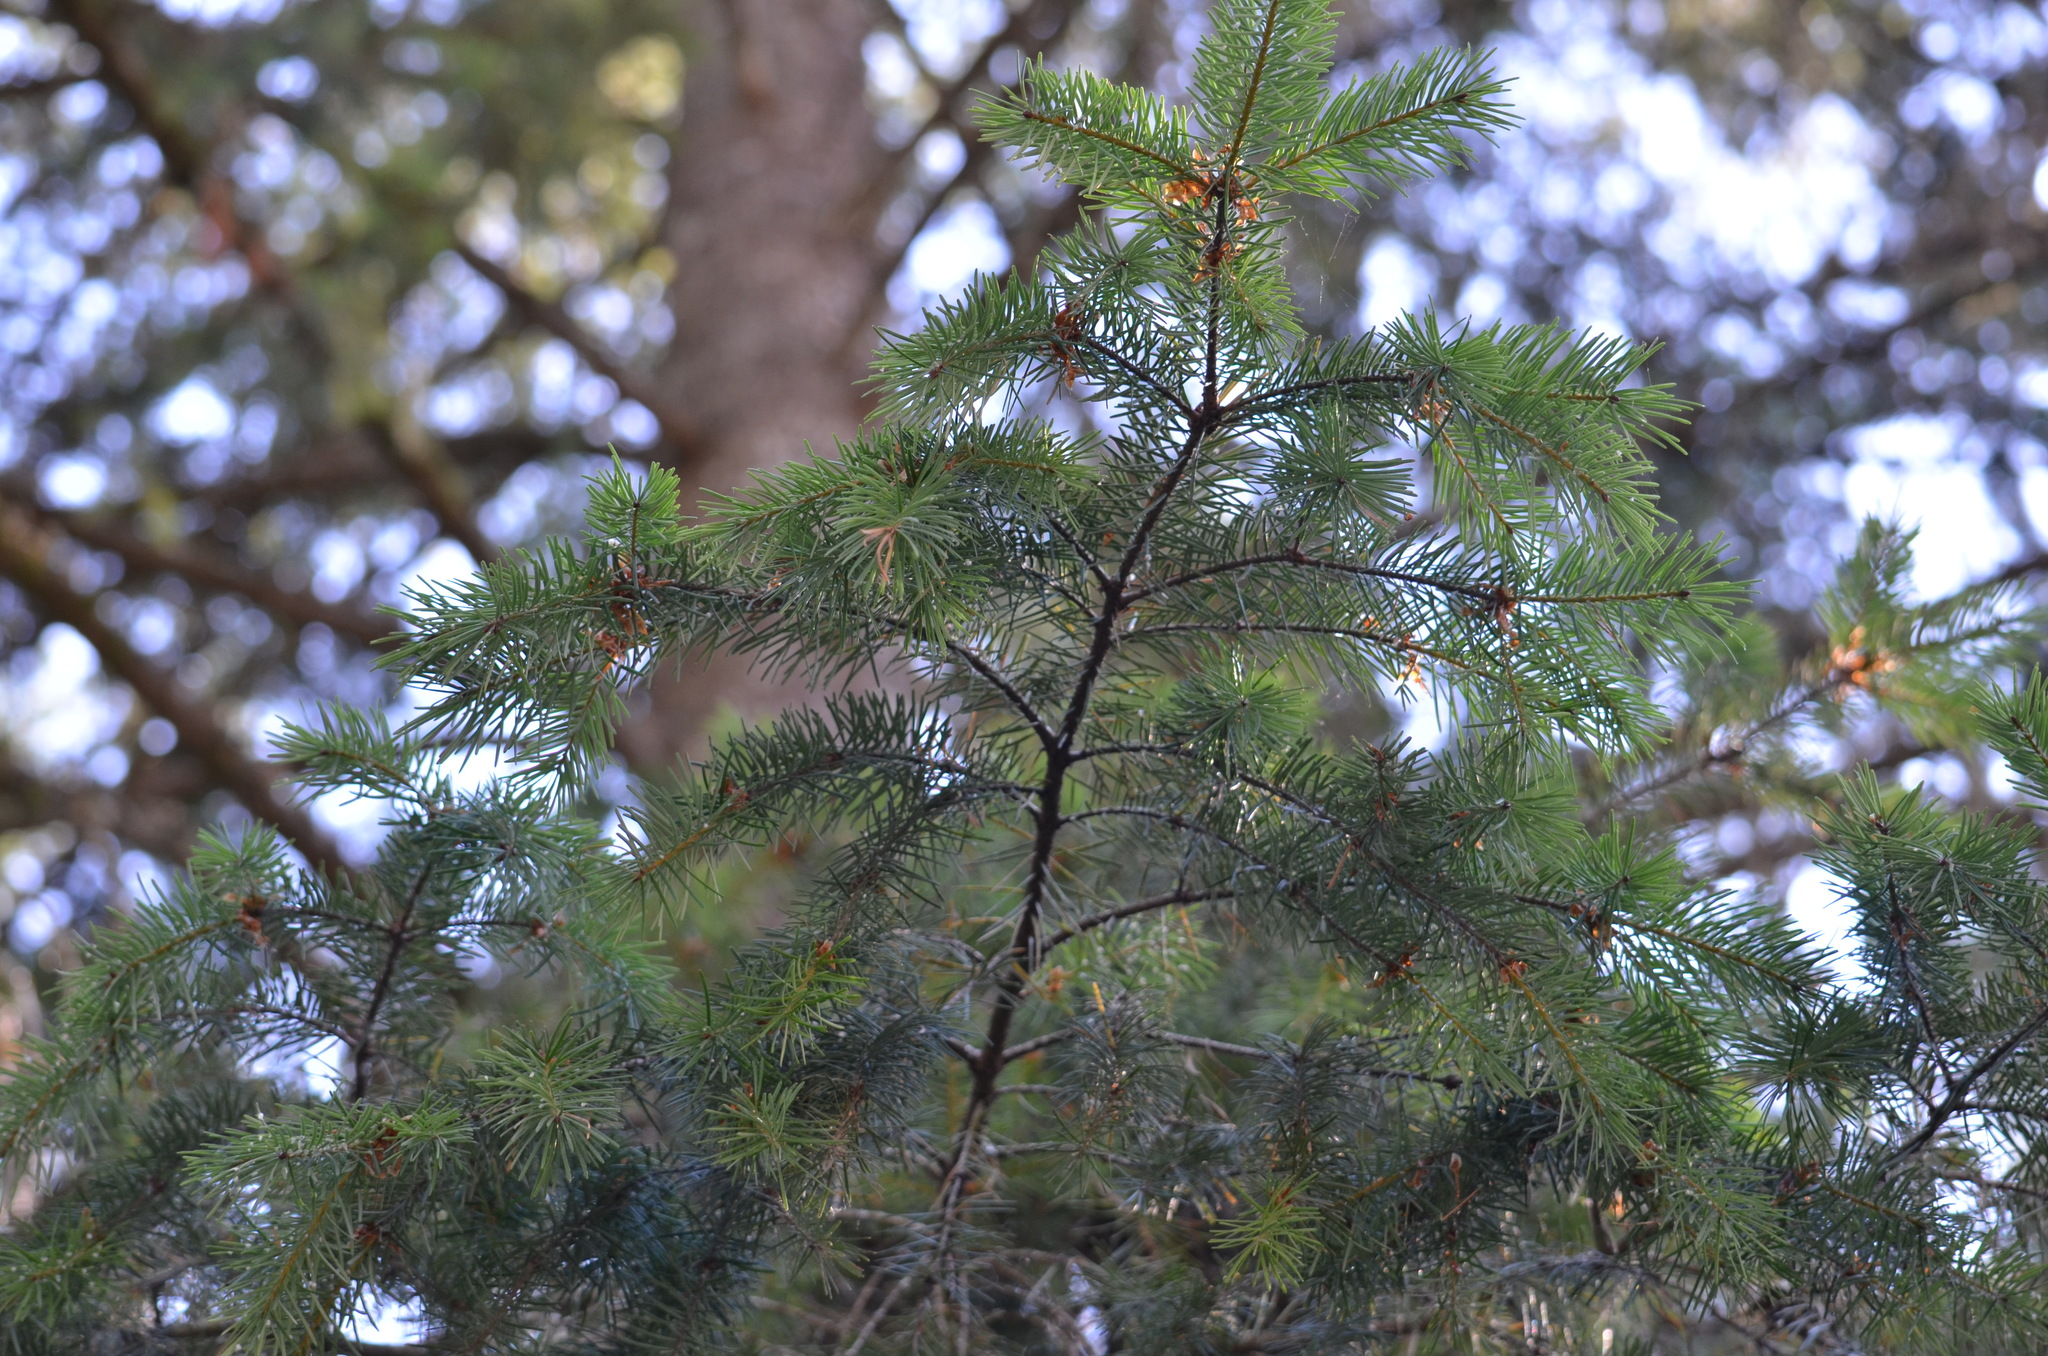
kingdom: Plantae
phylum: Tracheophyta
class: Pinopsida
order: Pinales
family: Pinaceae
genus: Pseudotsuga
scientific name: Pseudotsuga menziesii
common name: Douglas fir
